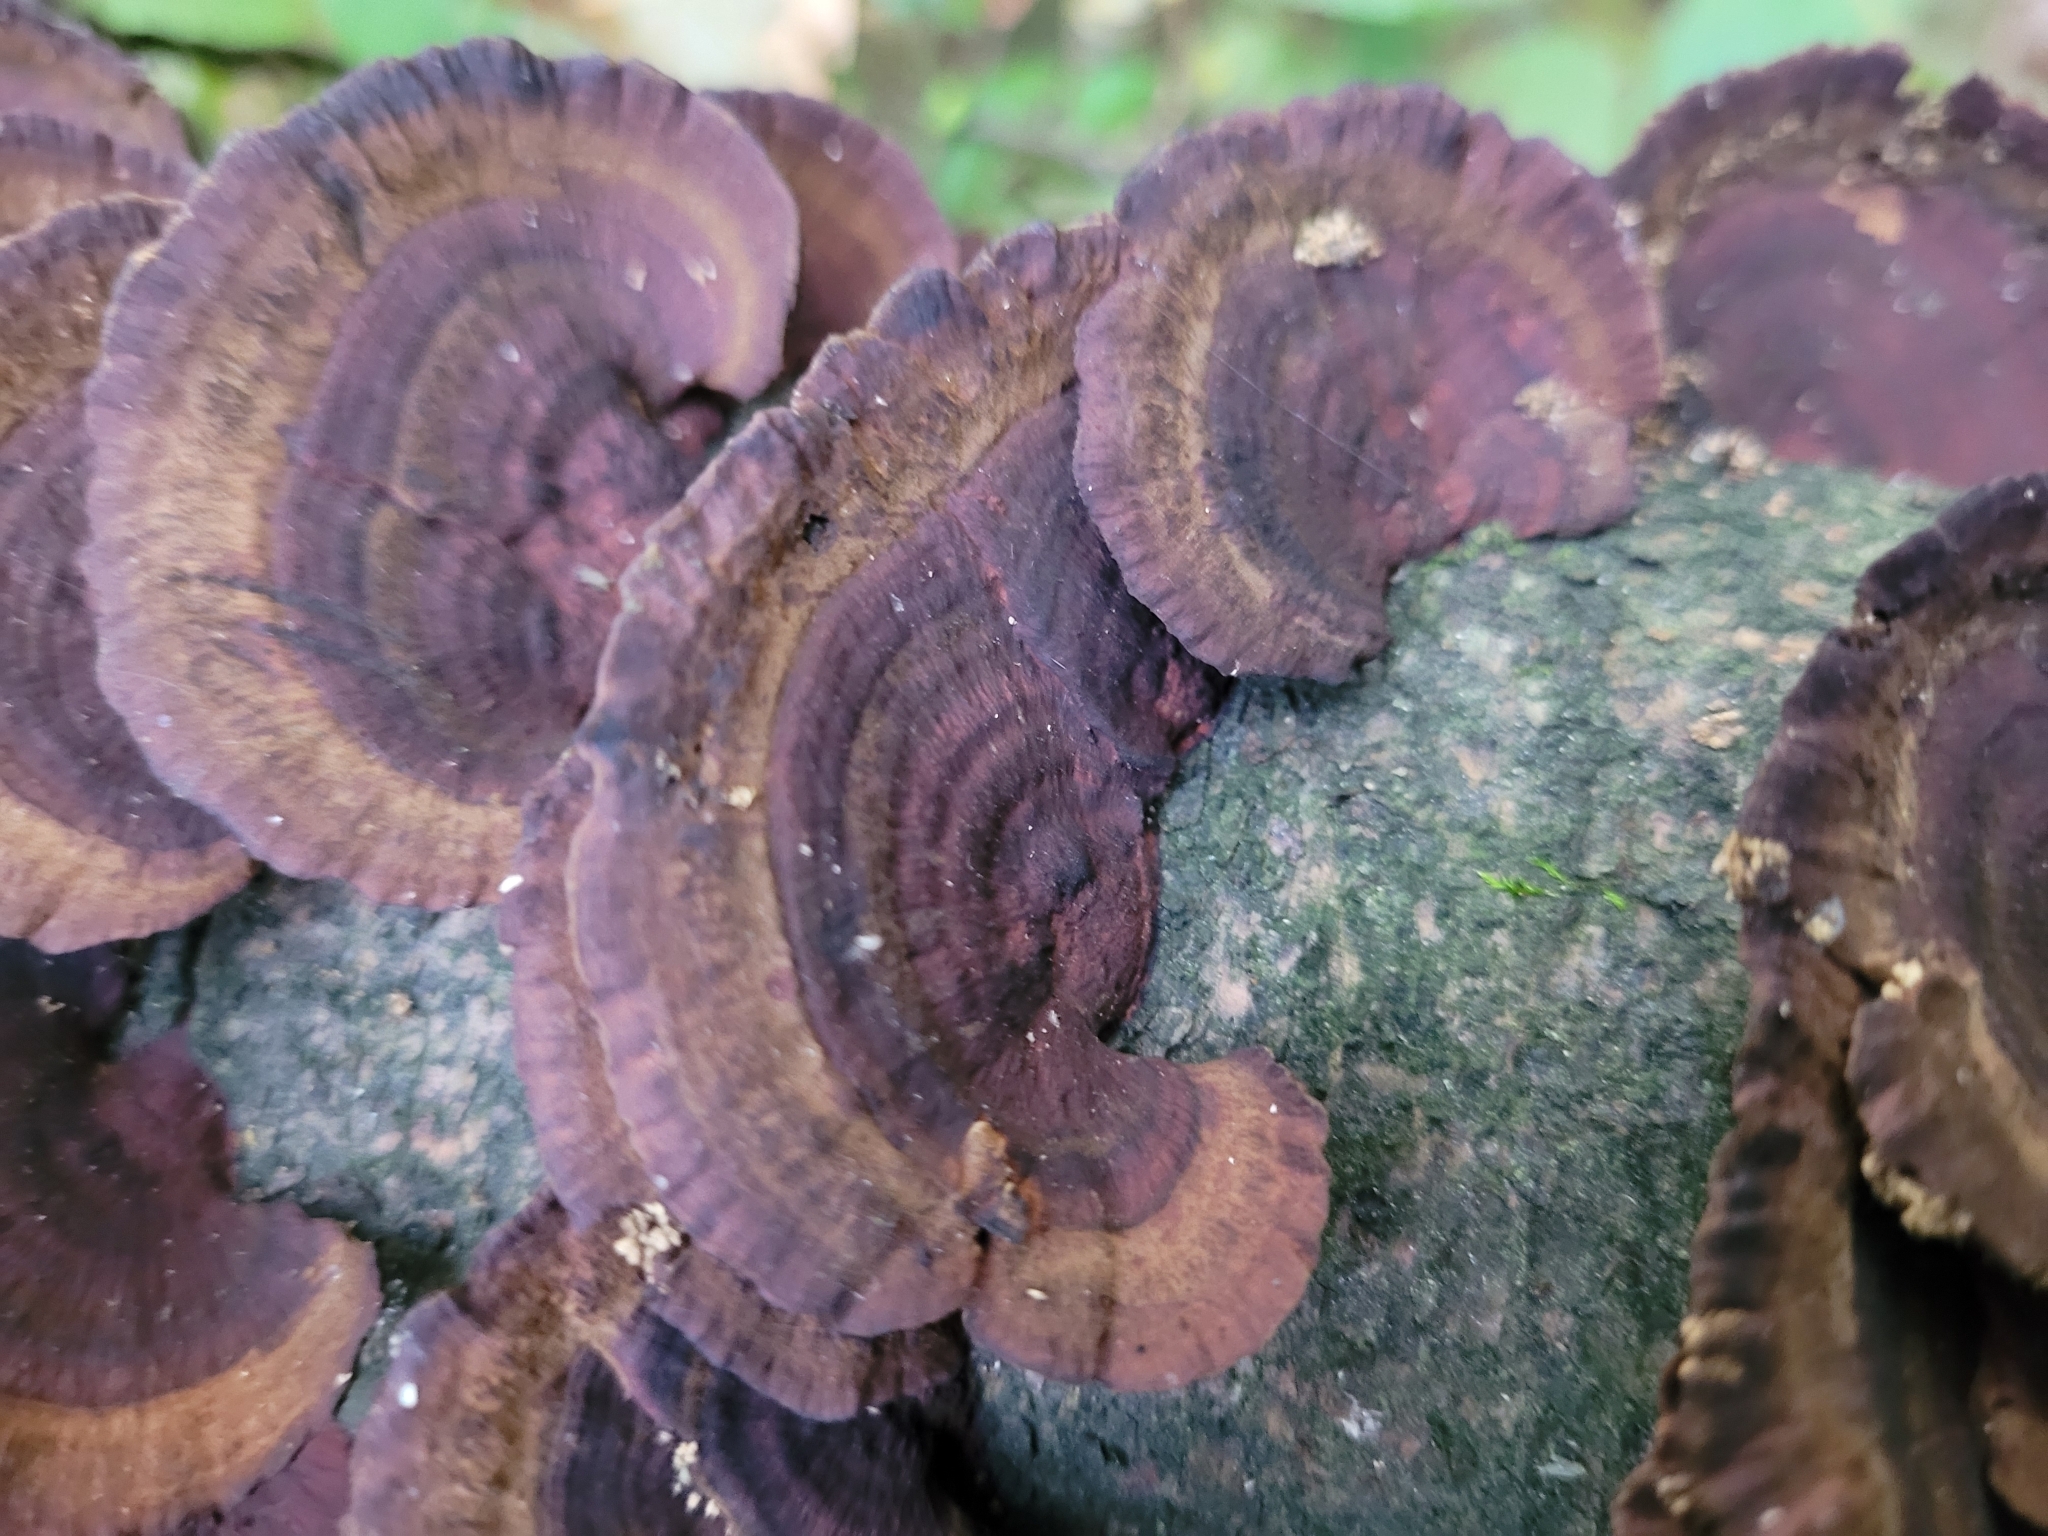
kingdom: Fungi
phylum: Basidiomycota
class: Agaricomycetes
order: Polyporales
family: Polyporaceae
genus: Daedaleopsis
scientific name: Daedaleopsis tricolor
